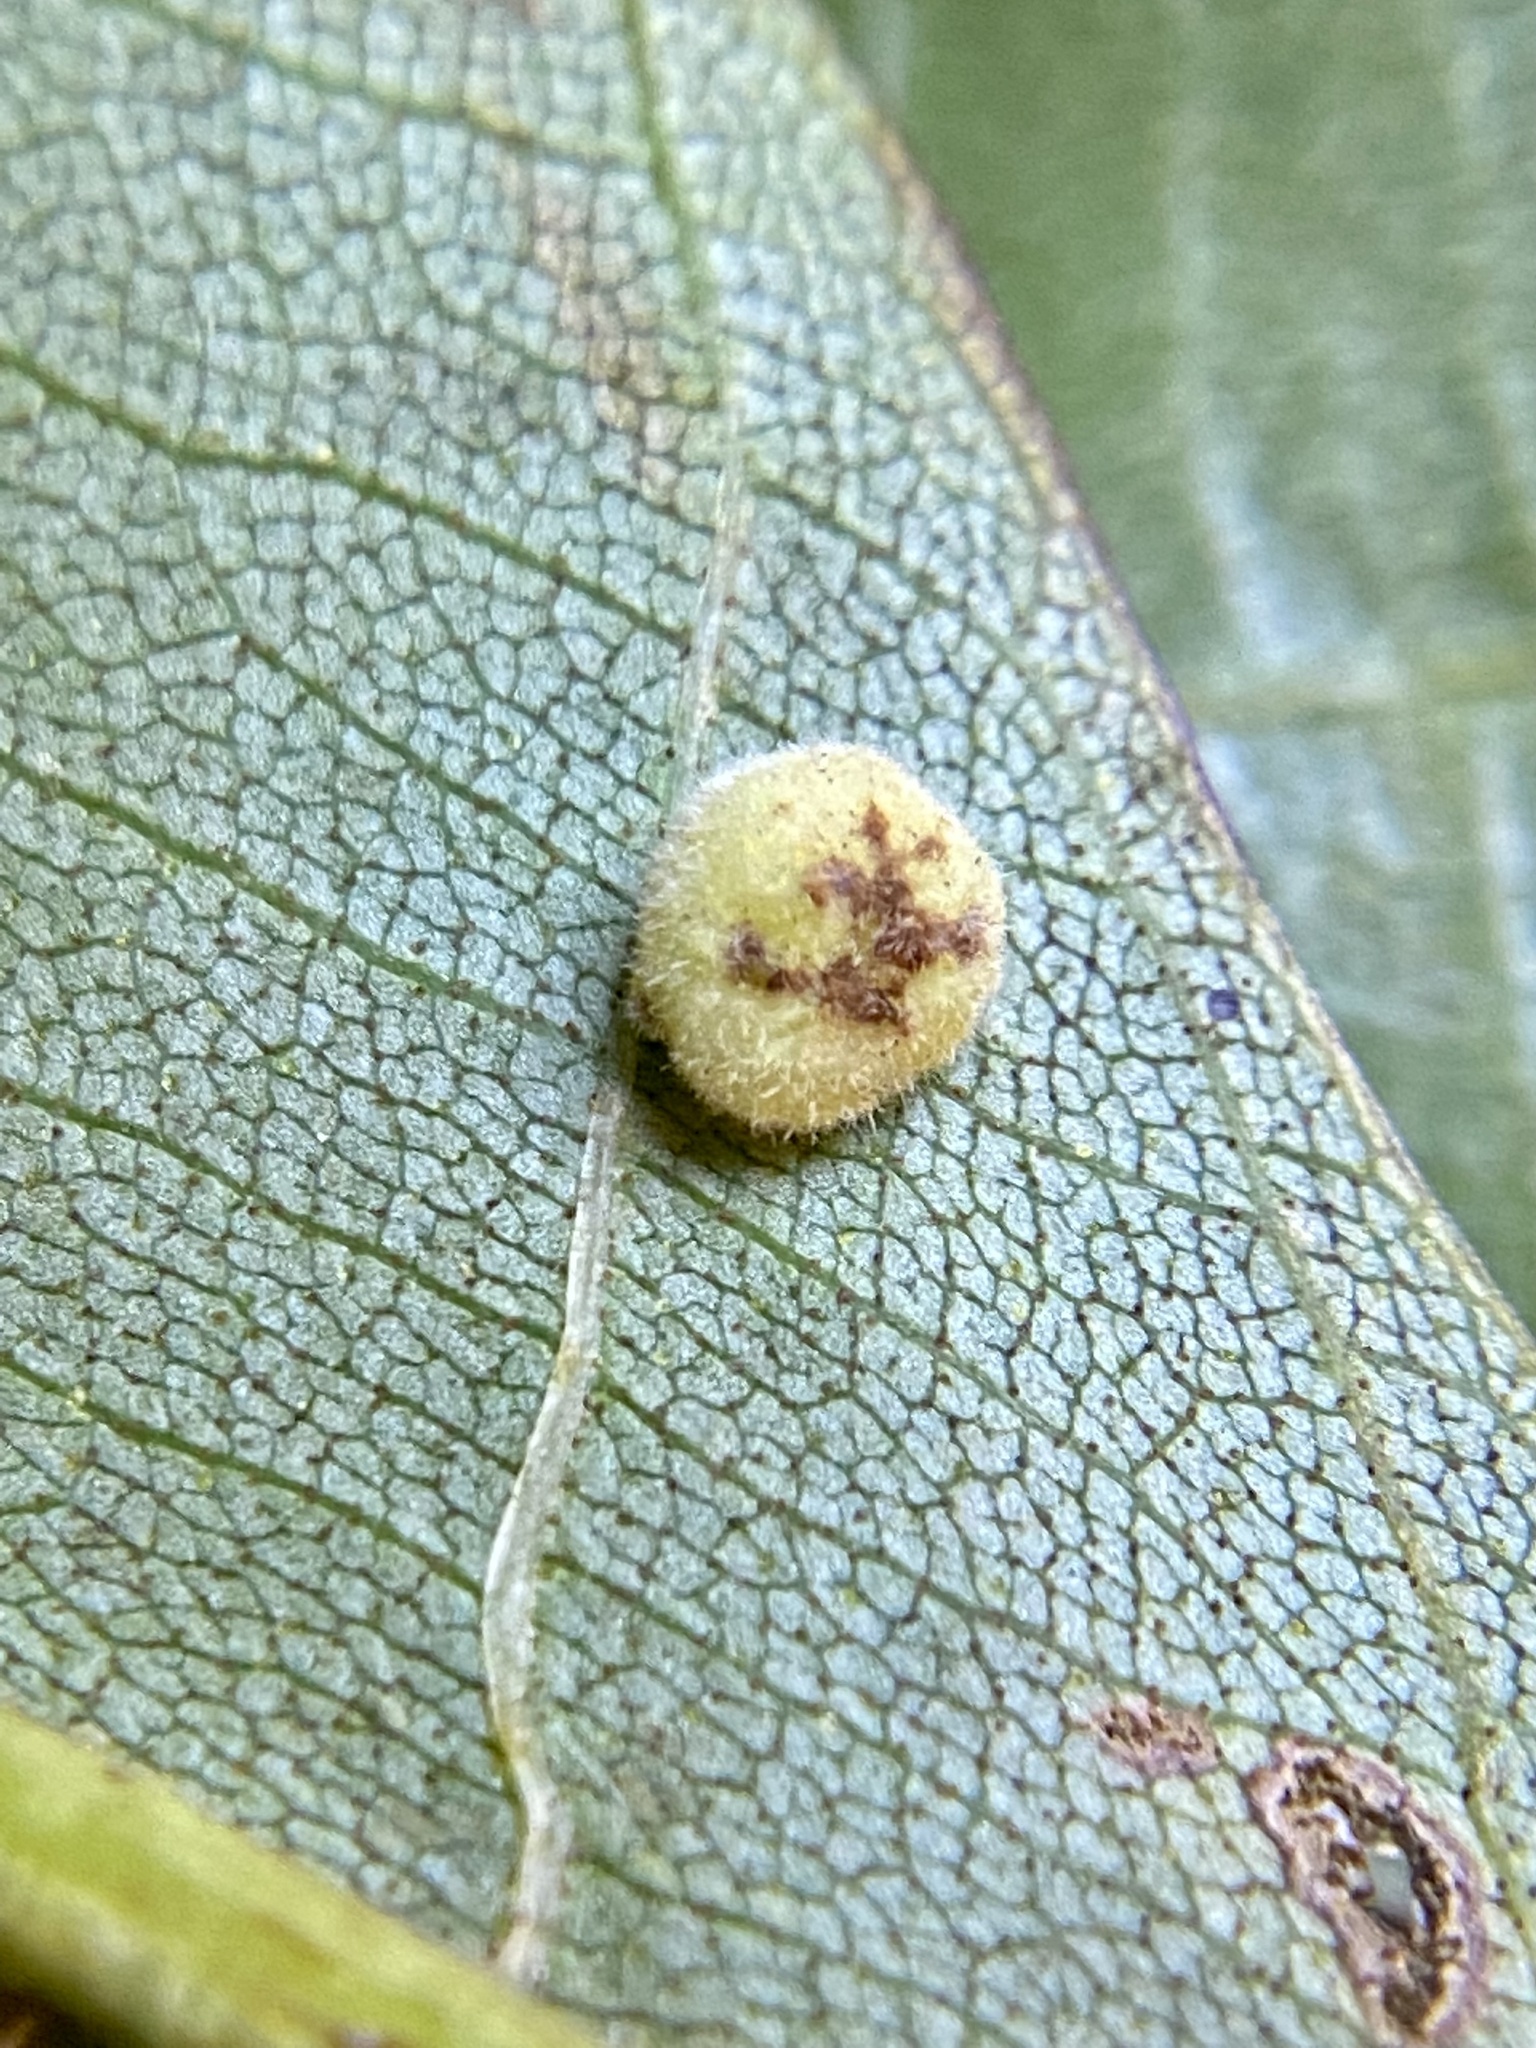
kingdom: Animalia
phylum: Arthropoda
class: Insecta
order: Diptera
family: Cecidomyiidae
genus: Caryomyia
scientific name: Caryomyia persicoides
